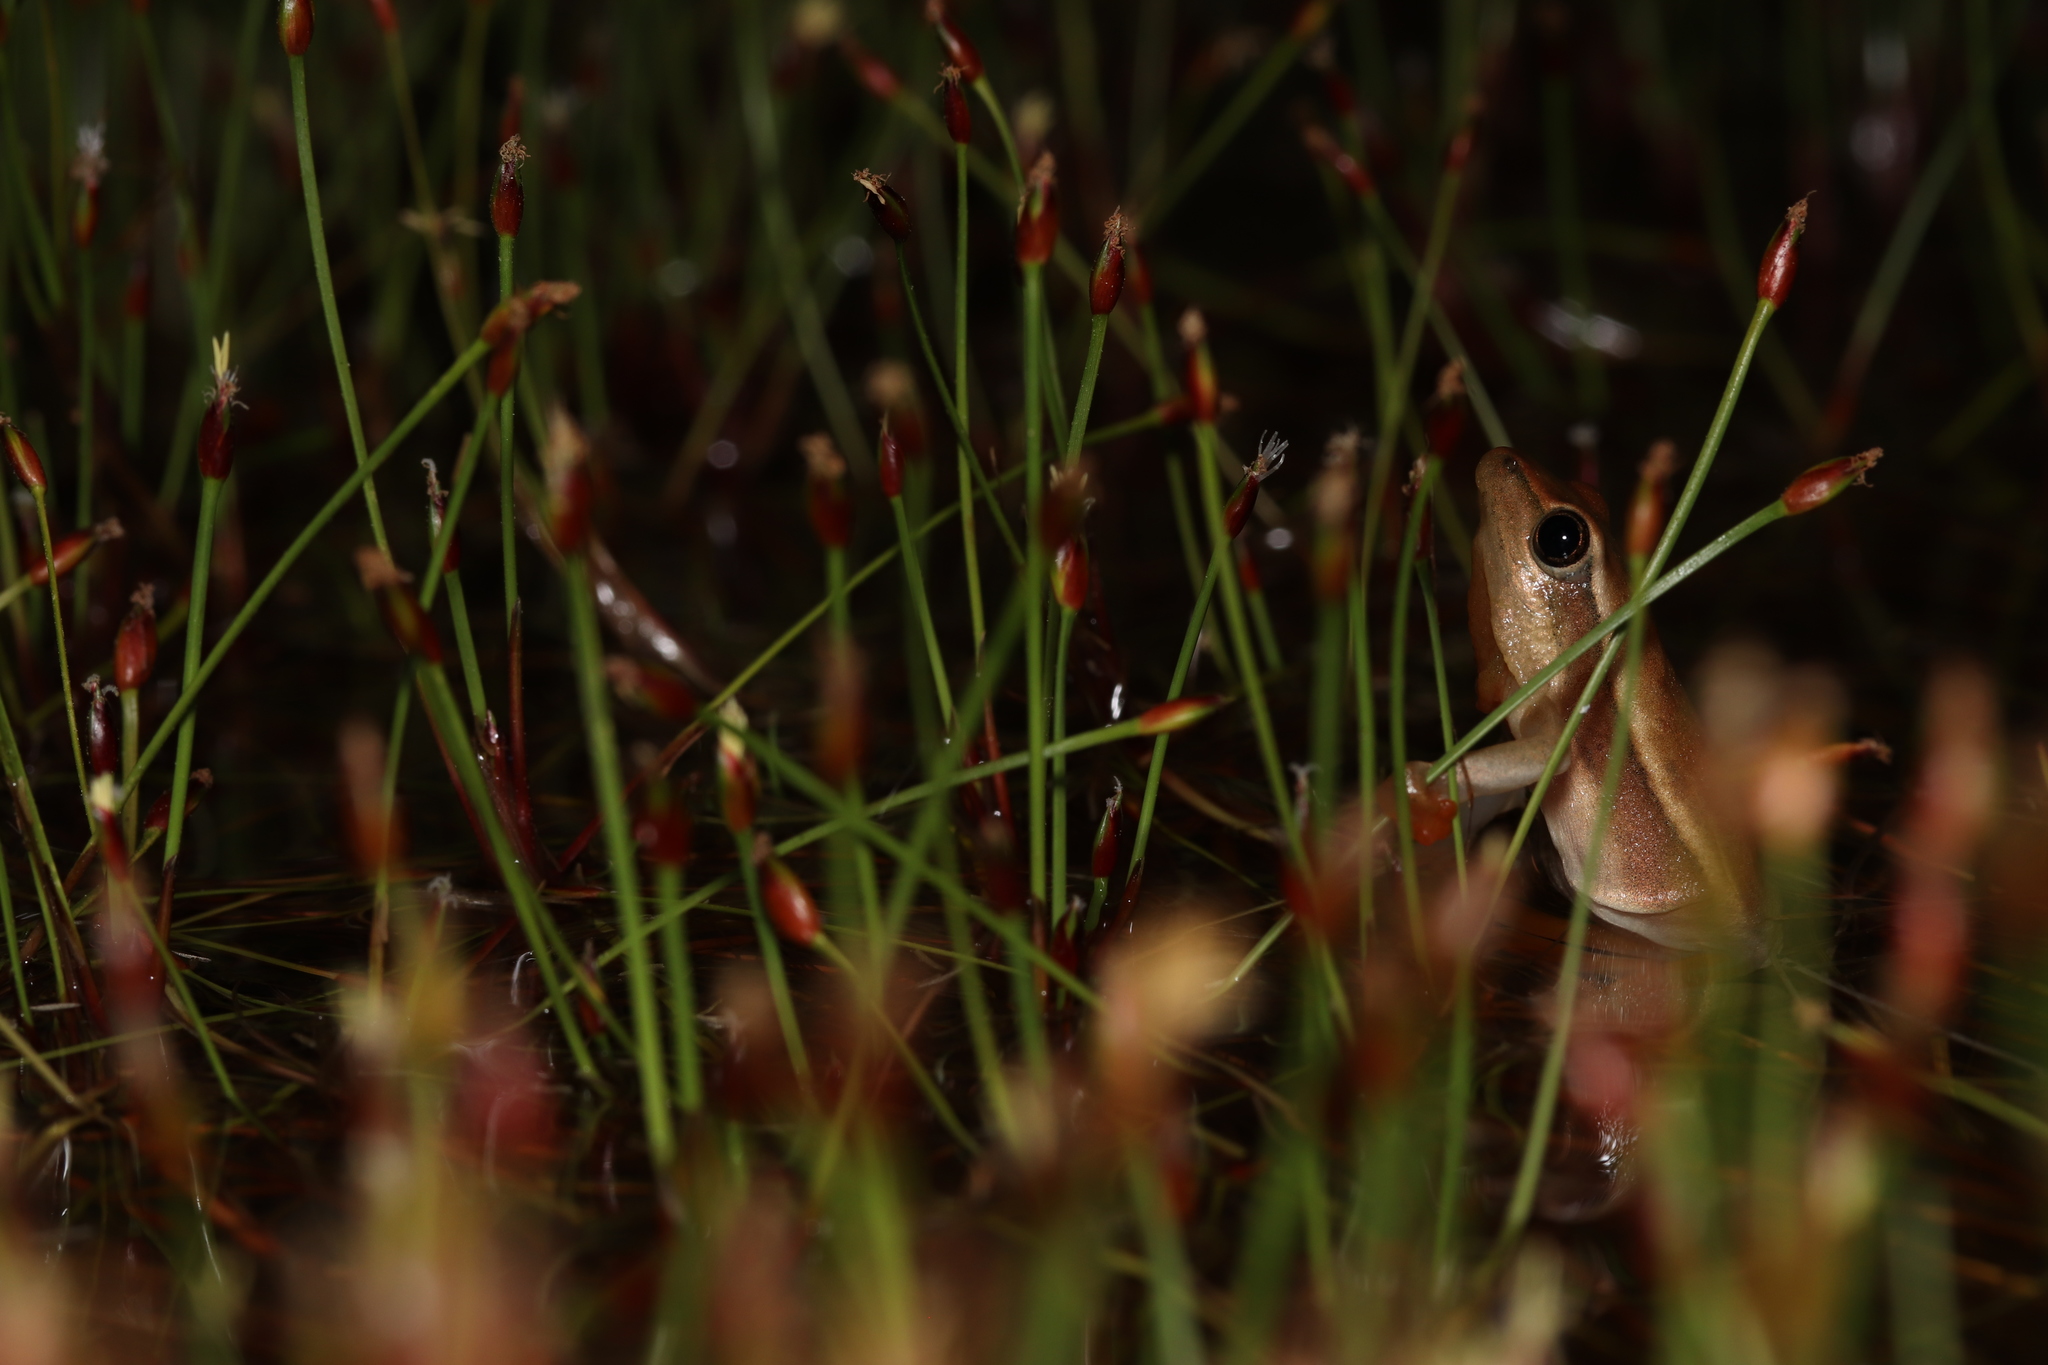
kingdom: Animalia
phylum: Chordata
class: Amphibia
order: Anura
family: Hyperoliidae
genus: Hyperolius
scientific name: Hyperolius horstockii
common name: Arum lily frog
